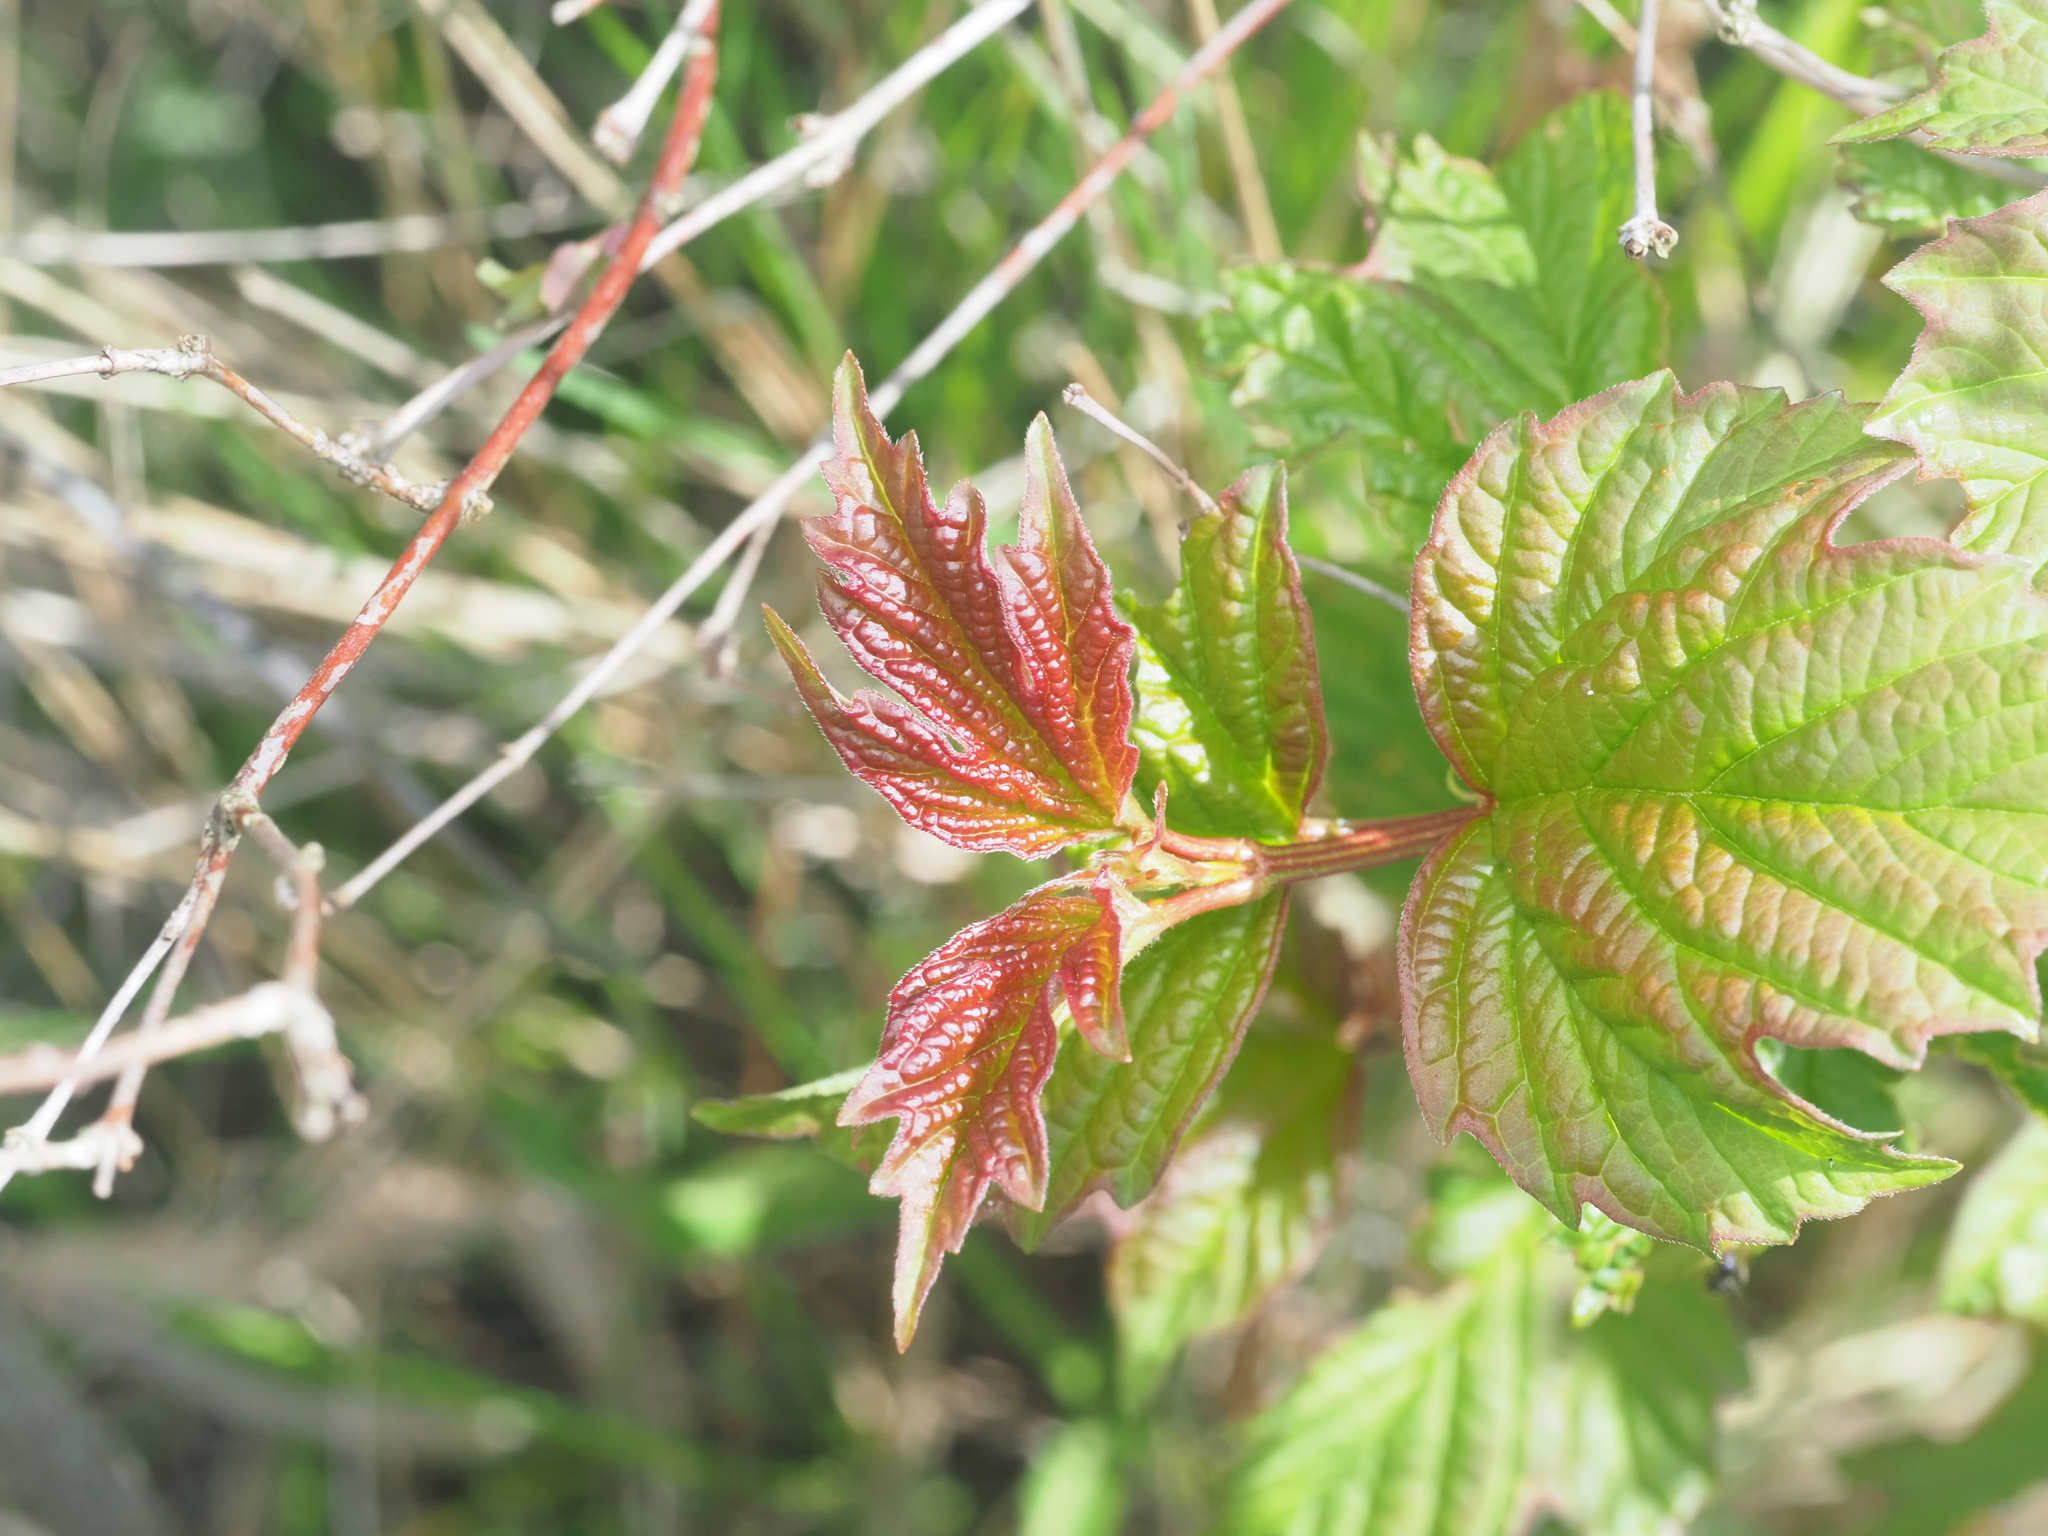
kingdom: Plantae
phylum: Tracheophyta
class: Magnoliopsida
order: Dipsacales
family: Viburnaceae
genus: Viburnum
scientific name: Viburnum opulus
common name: Guelder-rose
